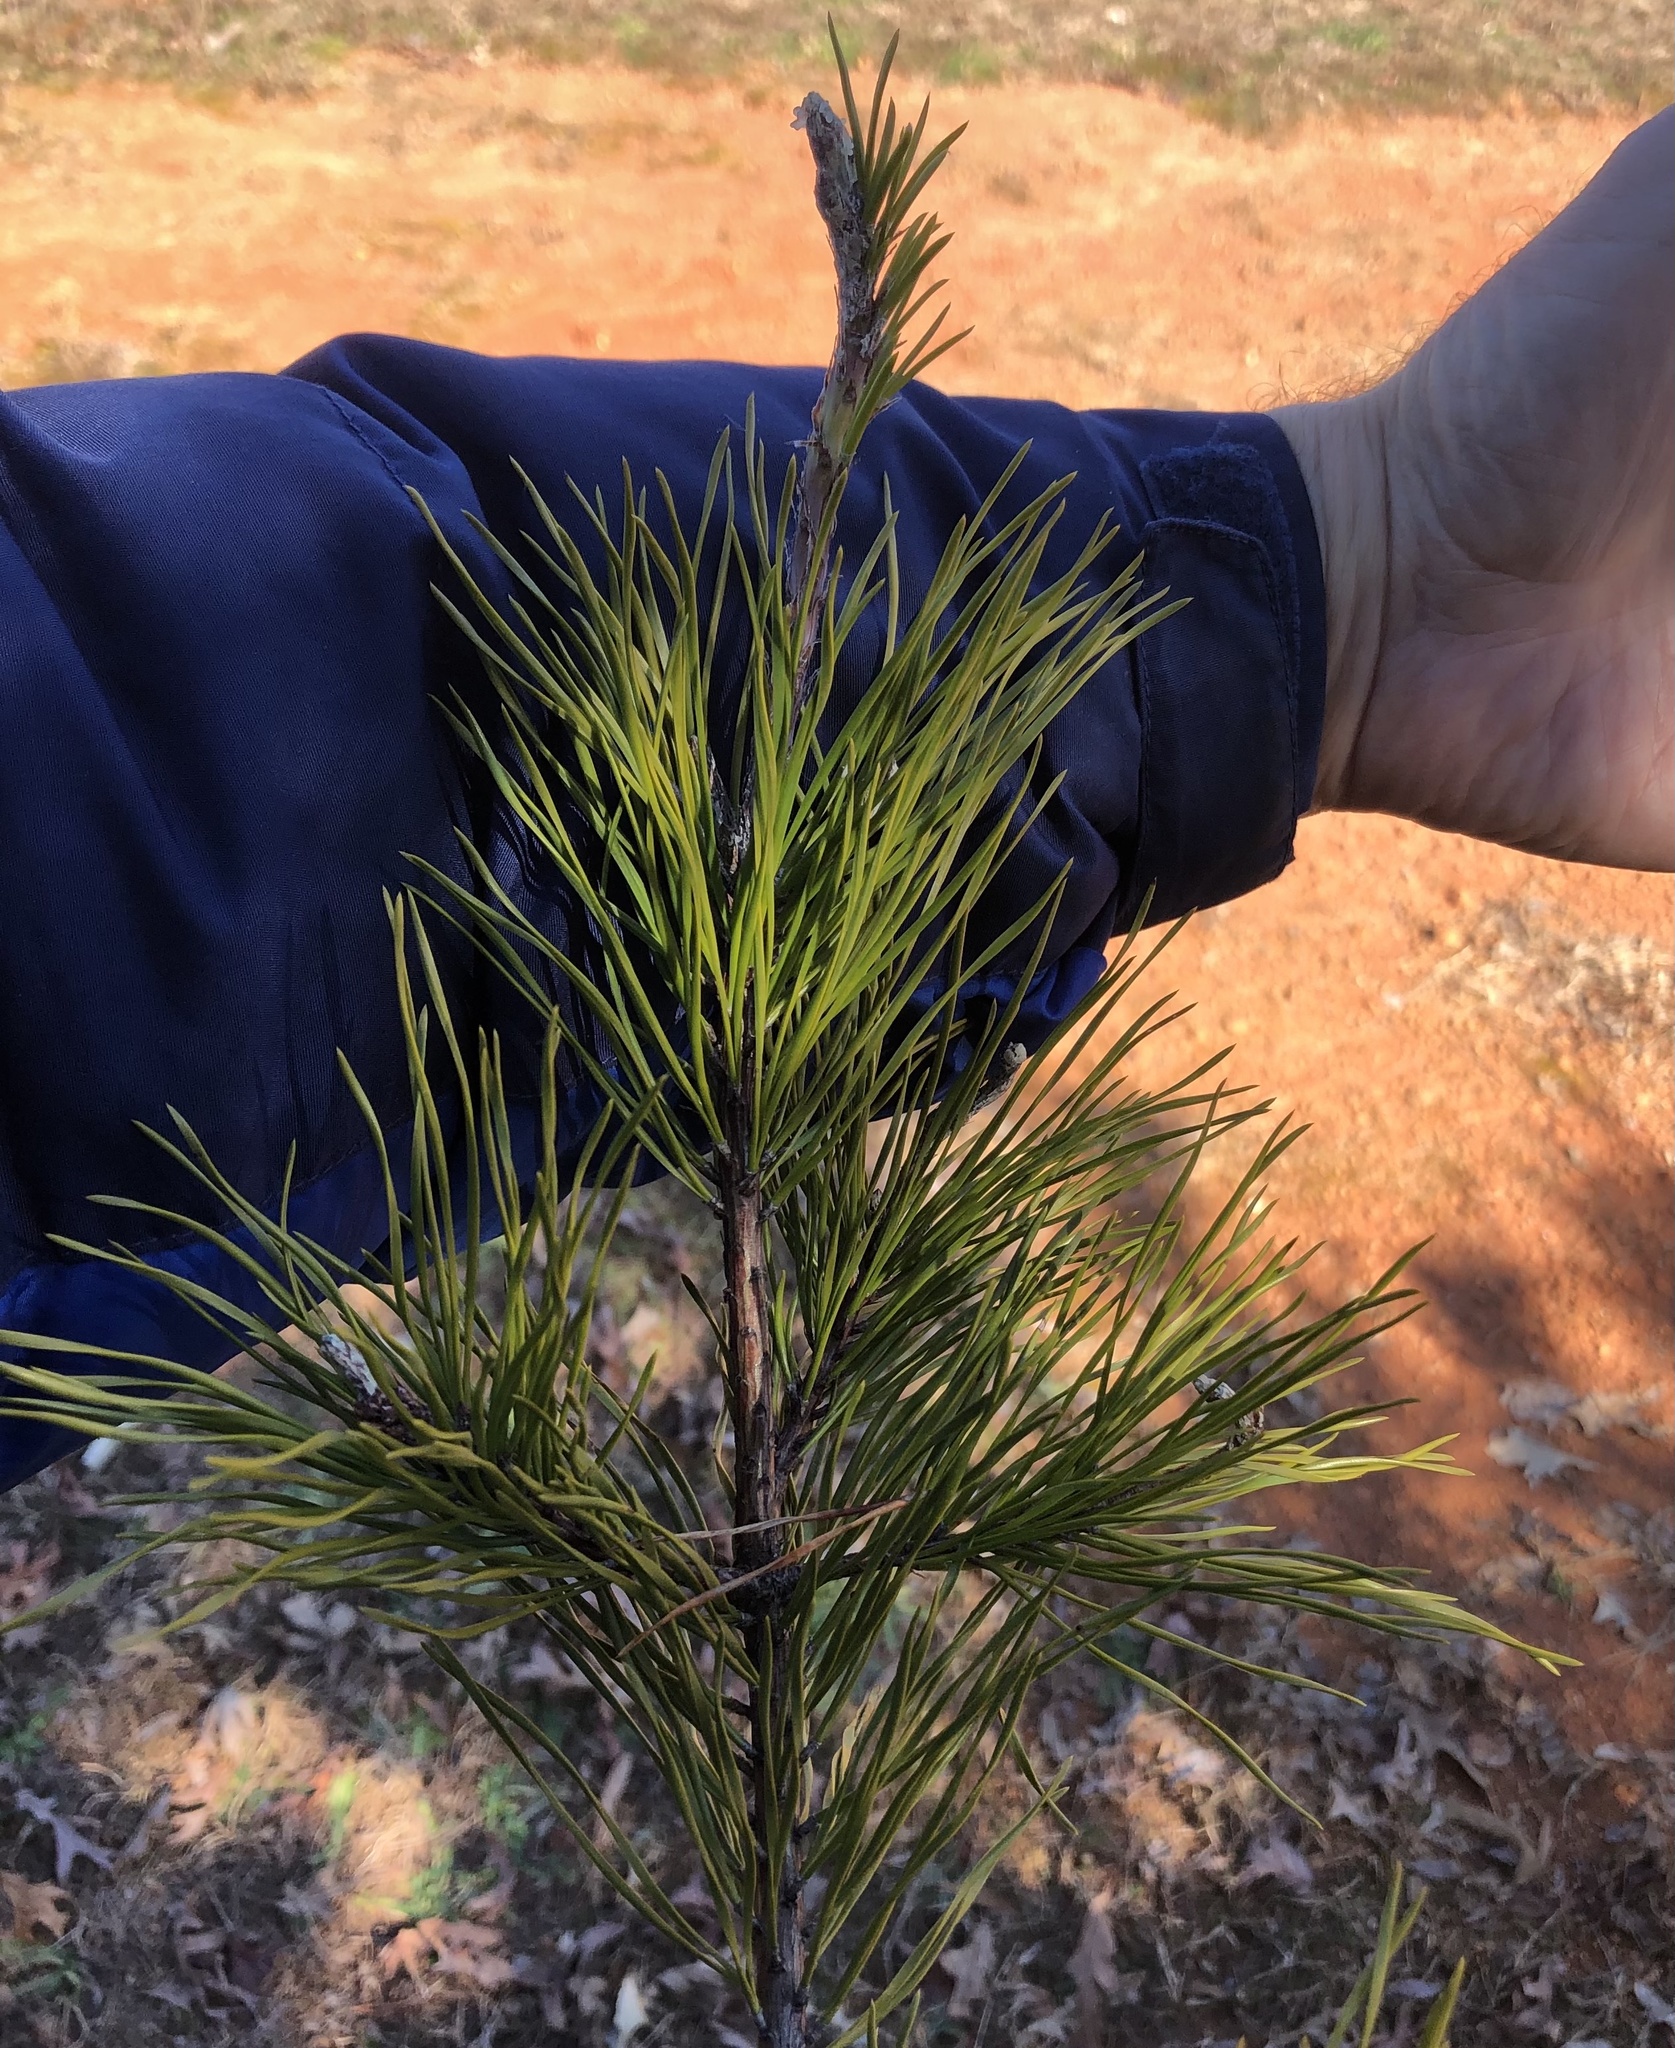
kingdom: Plantae
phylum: Tracheophyta
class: Pinopsida
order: Pinales
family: Pinaceae
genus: Pinus
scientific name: Pinus virginiana
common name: Scrub pine
